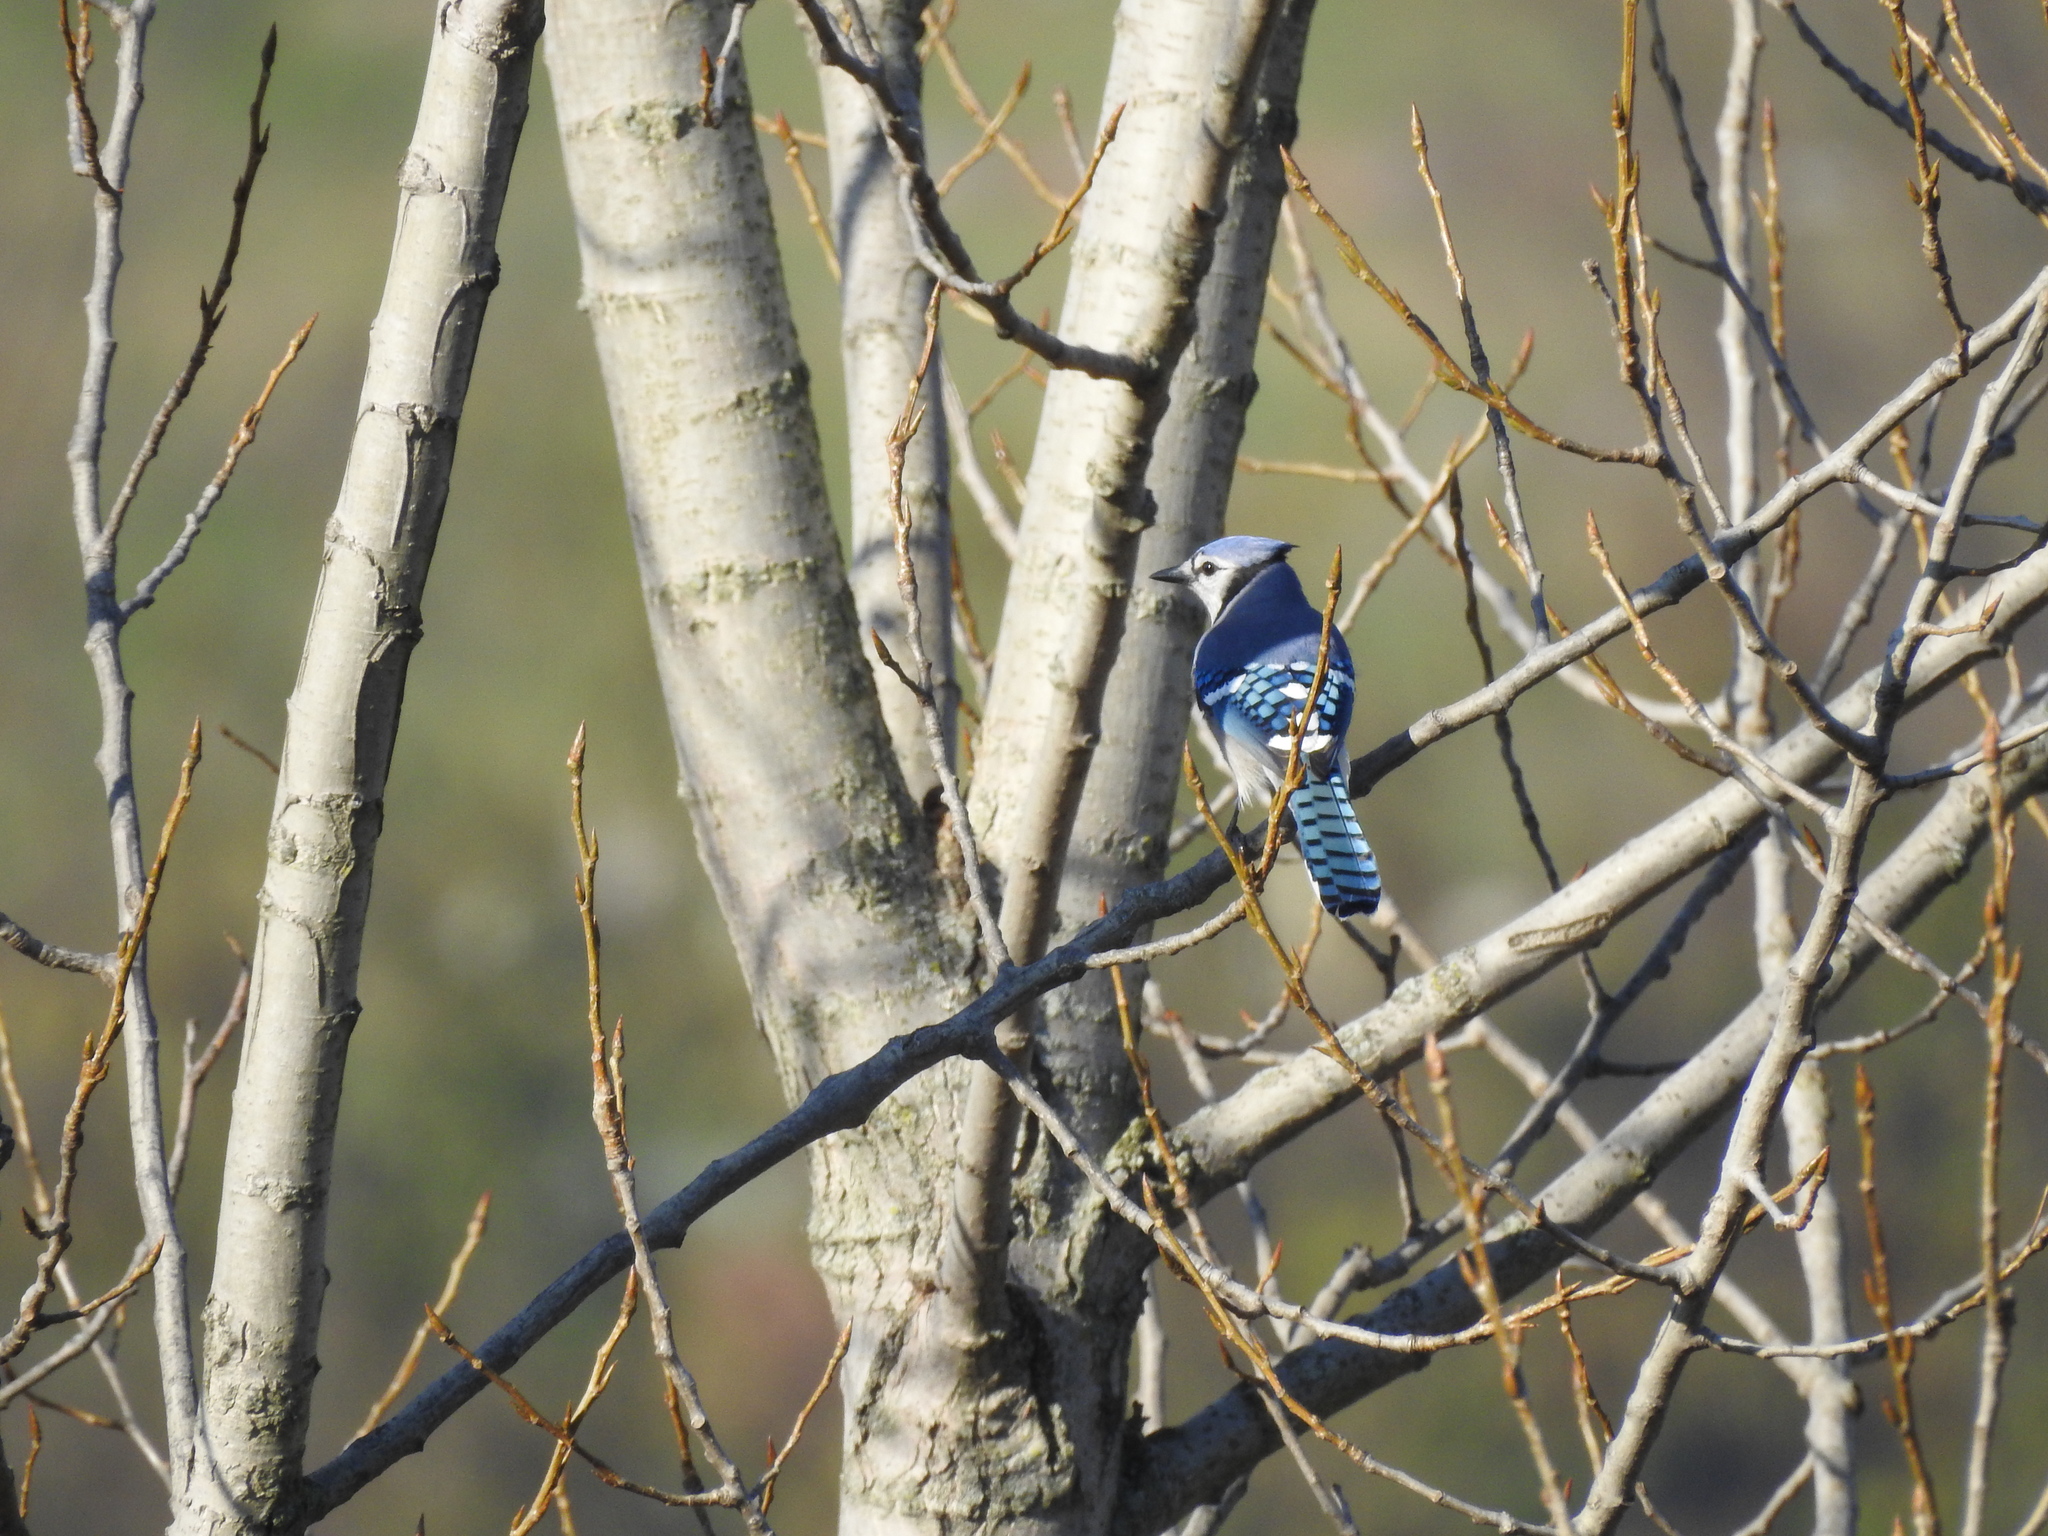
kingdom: Animalia
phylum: Chordata
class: Aves
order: Passeriformes
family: Corvidae
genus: Cyanocitta
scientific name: Cyanocitta cristata
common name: Blue jay
